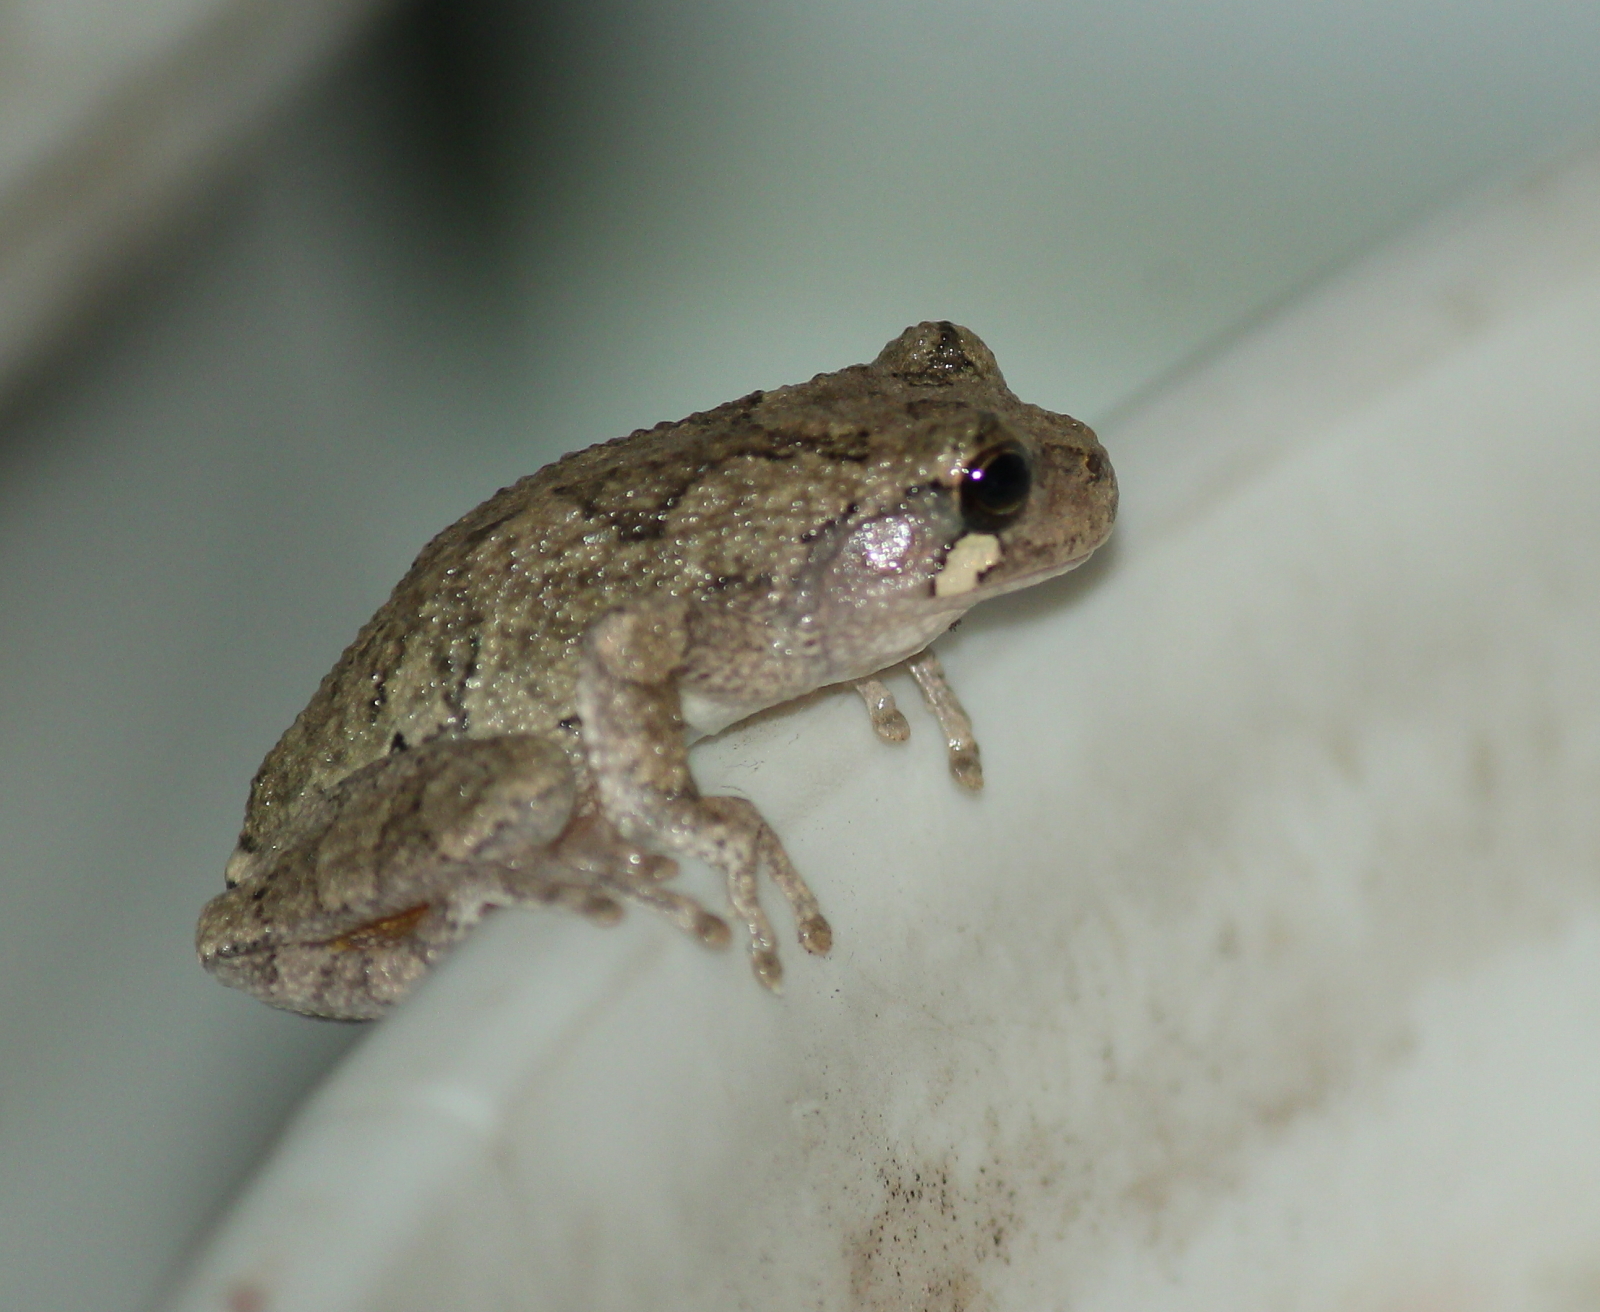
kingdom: Animalia
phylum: Chordata
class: Amphibia
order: Anura
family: Hylidae
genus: Hyla
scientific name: Hyla
